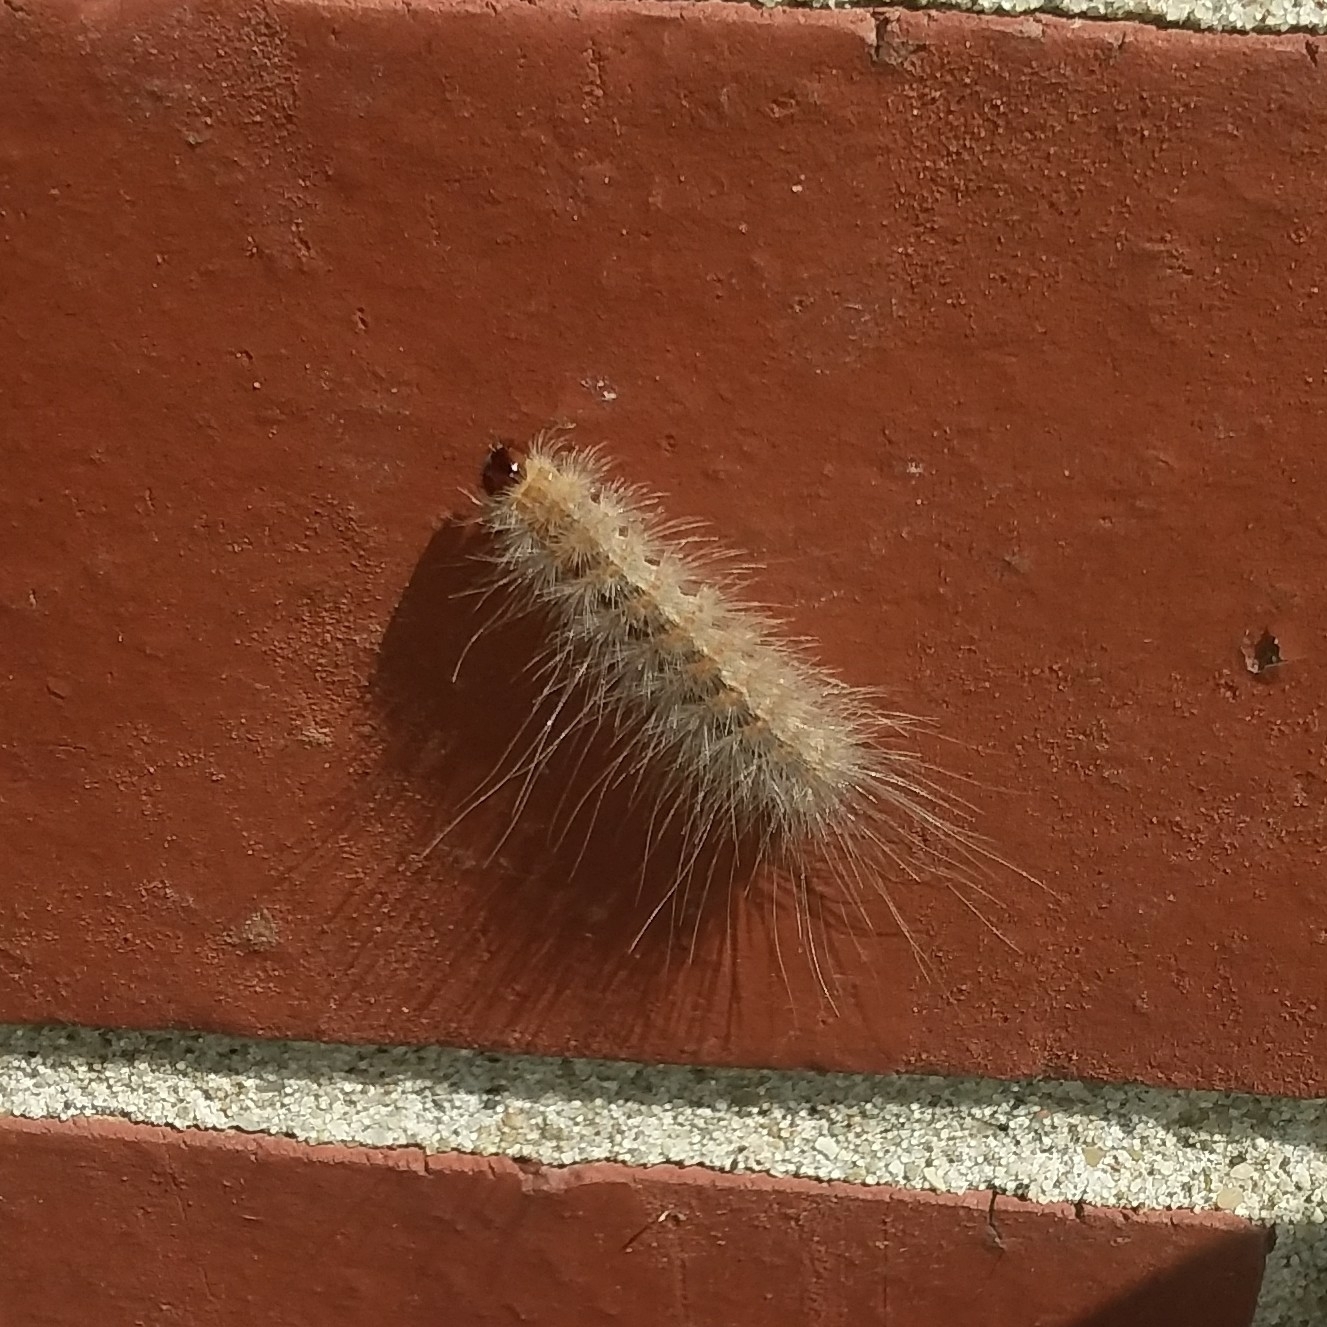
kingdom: Animalia
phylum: Arthropoda
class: Insecta
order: Lepidoptera
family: Erebidae
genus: Hyphantria
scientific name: Hyphantria cunea
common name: American white moth
